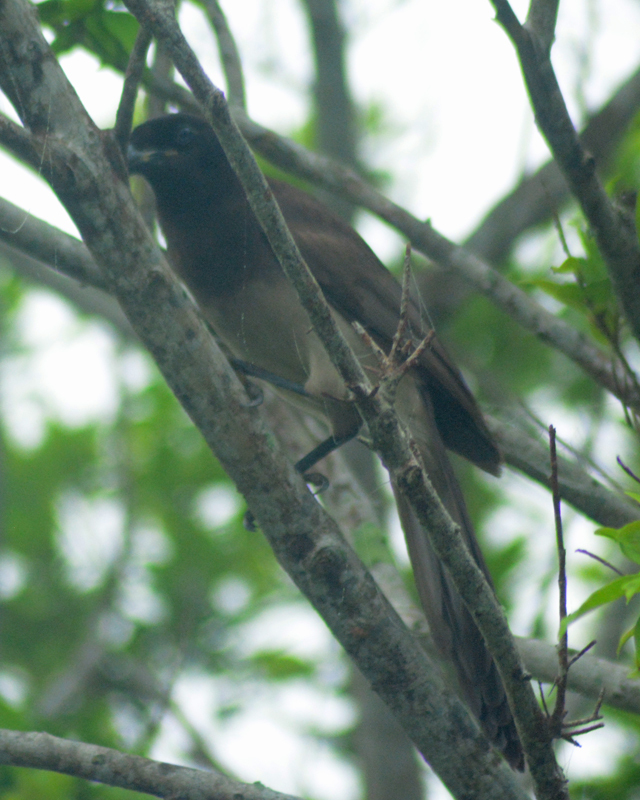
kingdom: Animalia
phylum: Chordata
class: Aves
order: Passeriformes
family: Corvidae
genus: Psilorhinus
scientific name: Psilorhinus morio
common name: Brown jay
